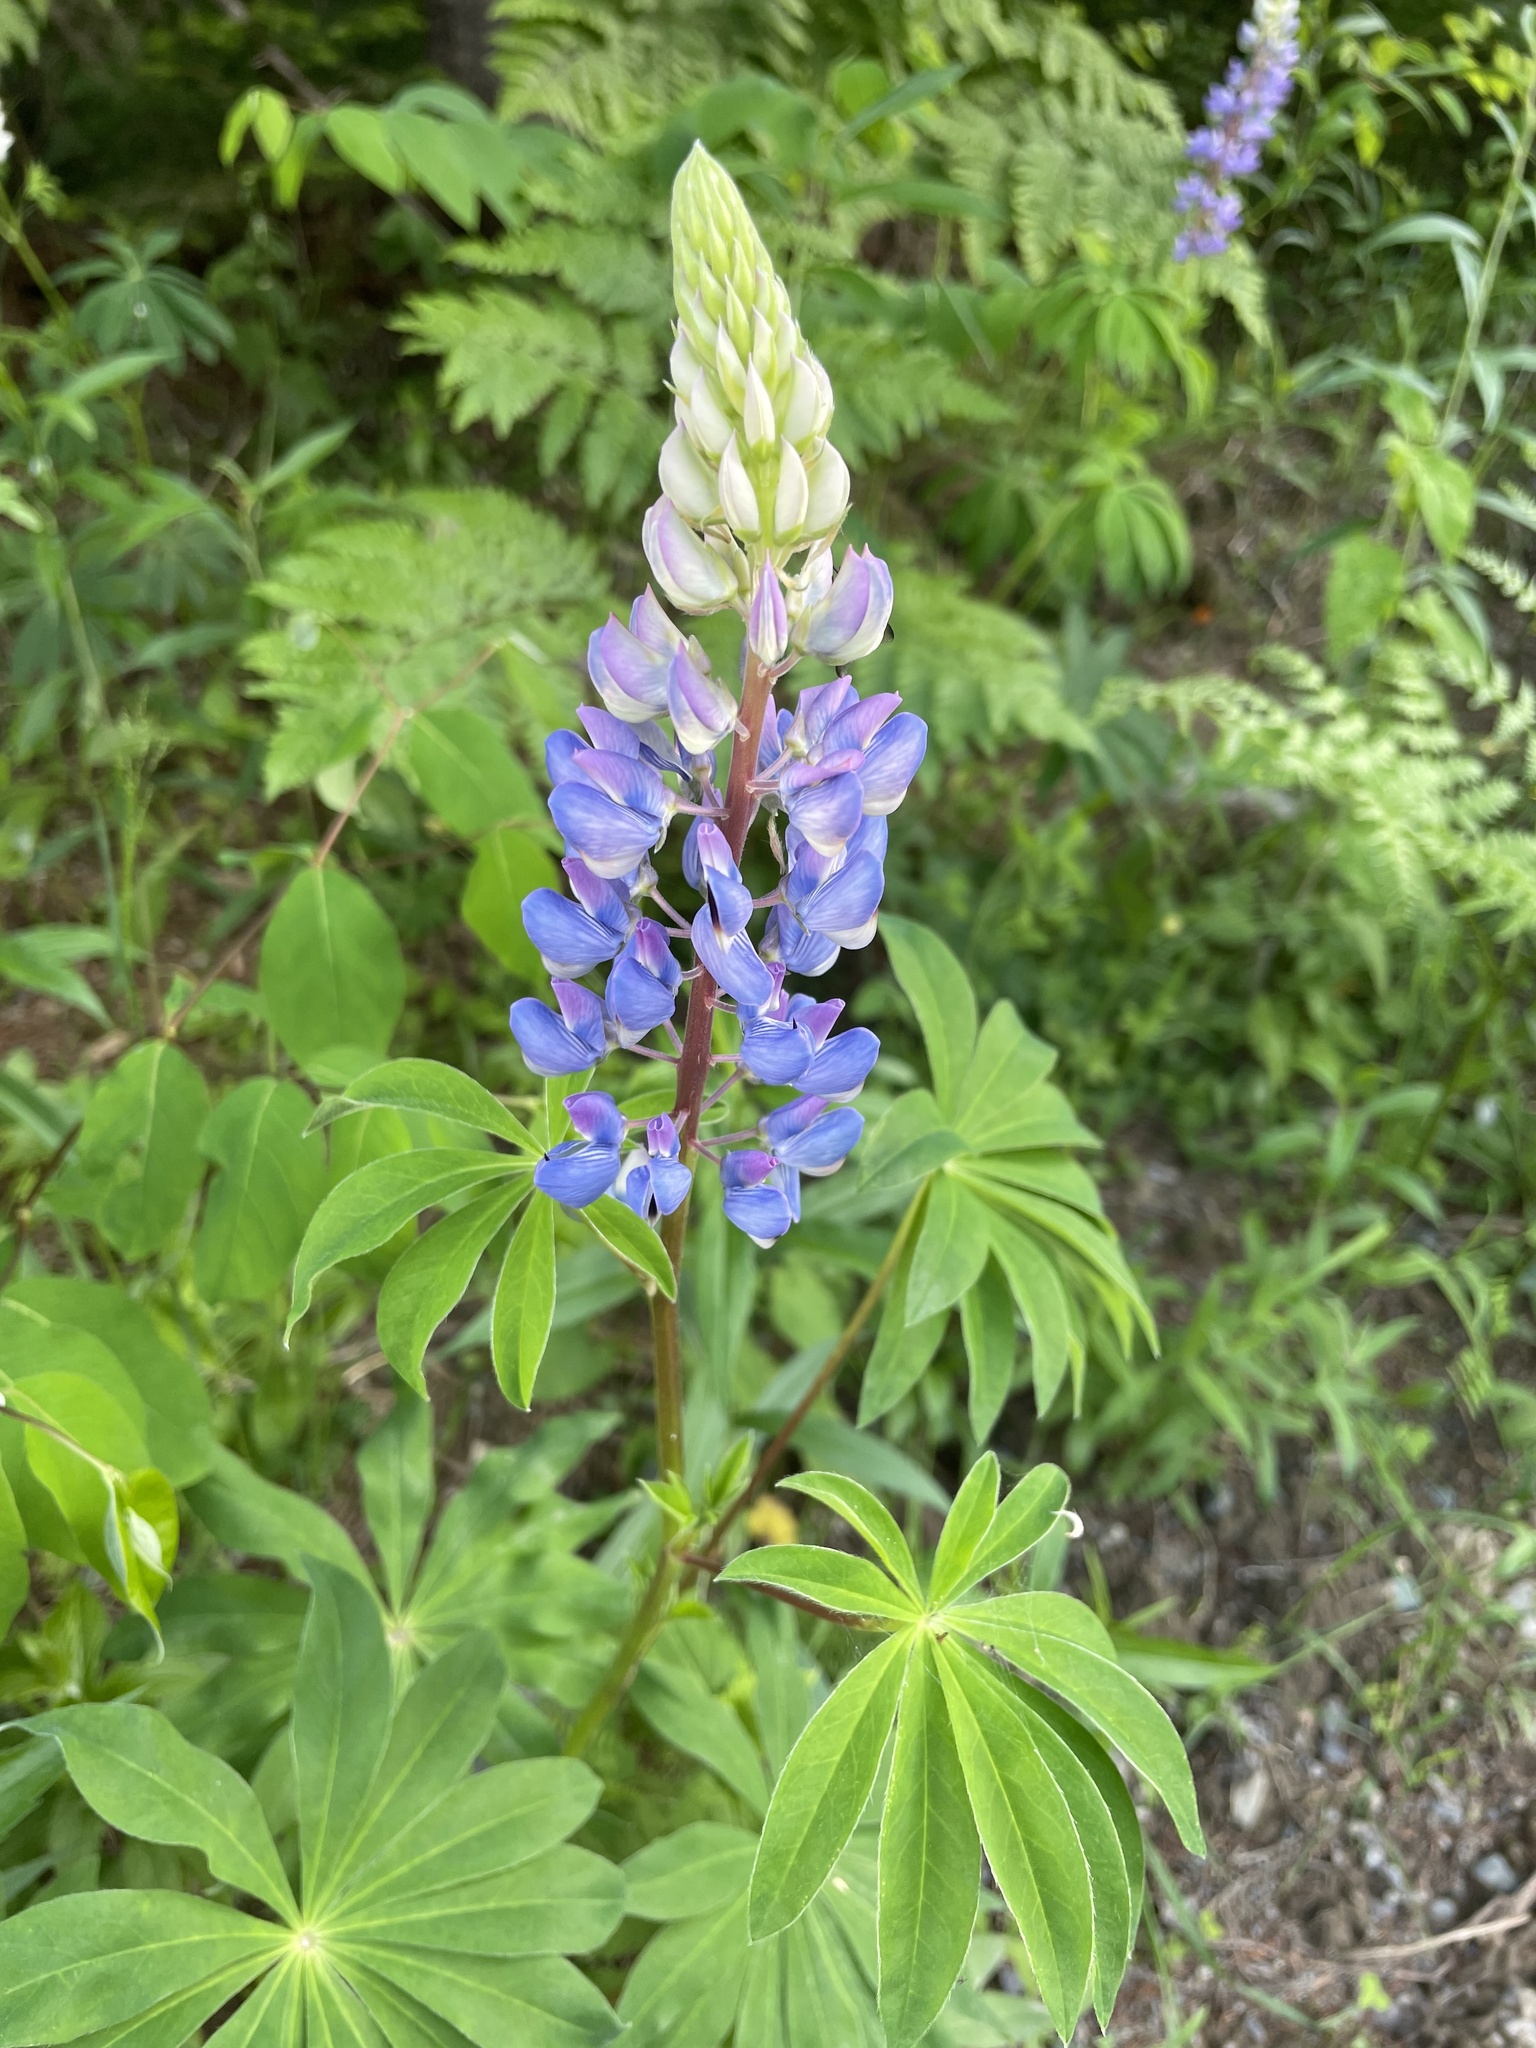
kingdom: Plantae
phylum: Tracheophyta
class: Magnoliopsida
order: Fabales
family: Fabaceae
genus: Lupinus
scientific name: Lupinus polyphyllus
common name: Garden lupin
